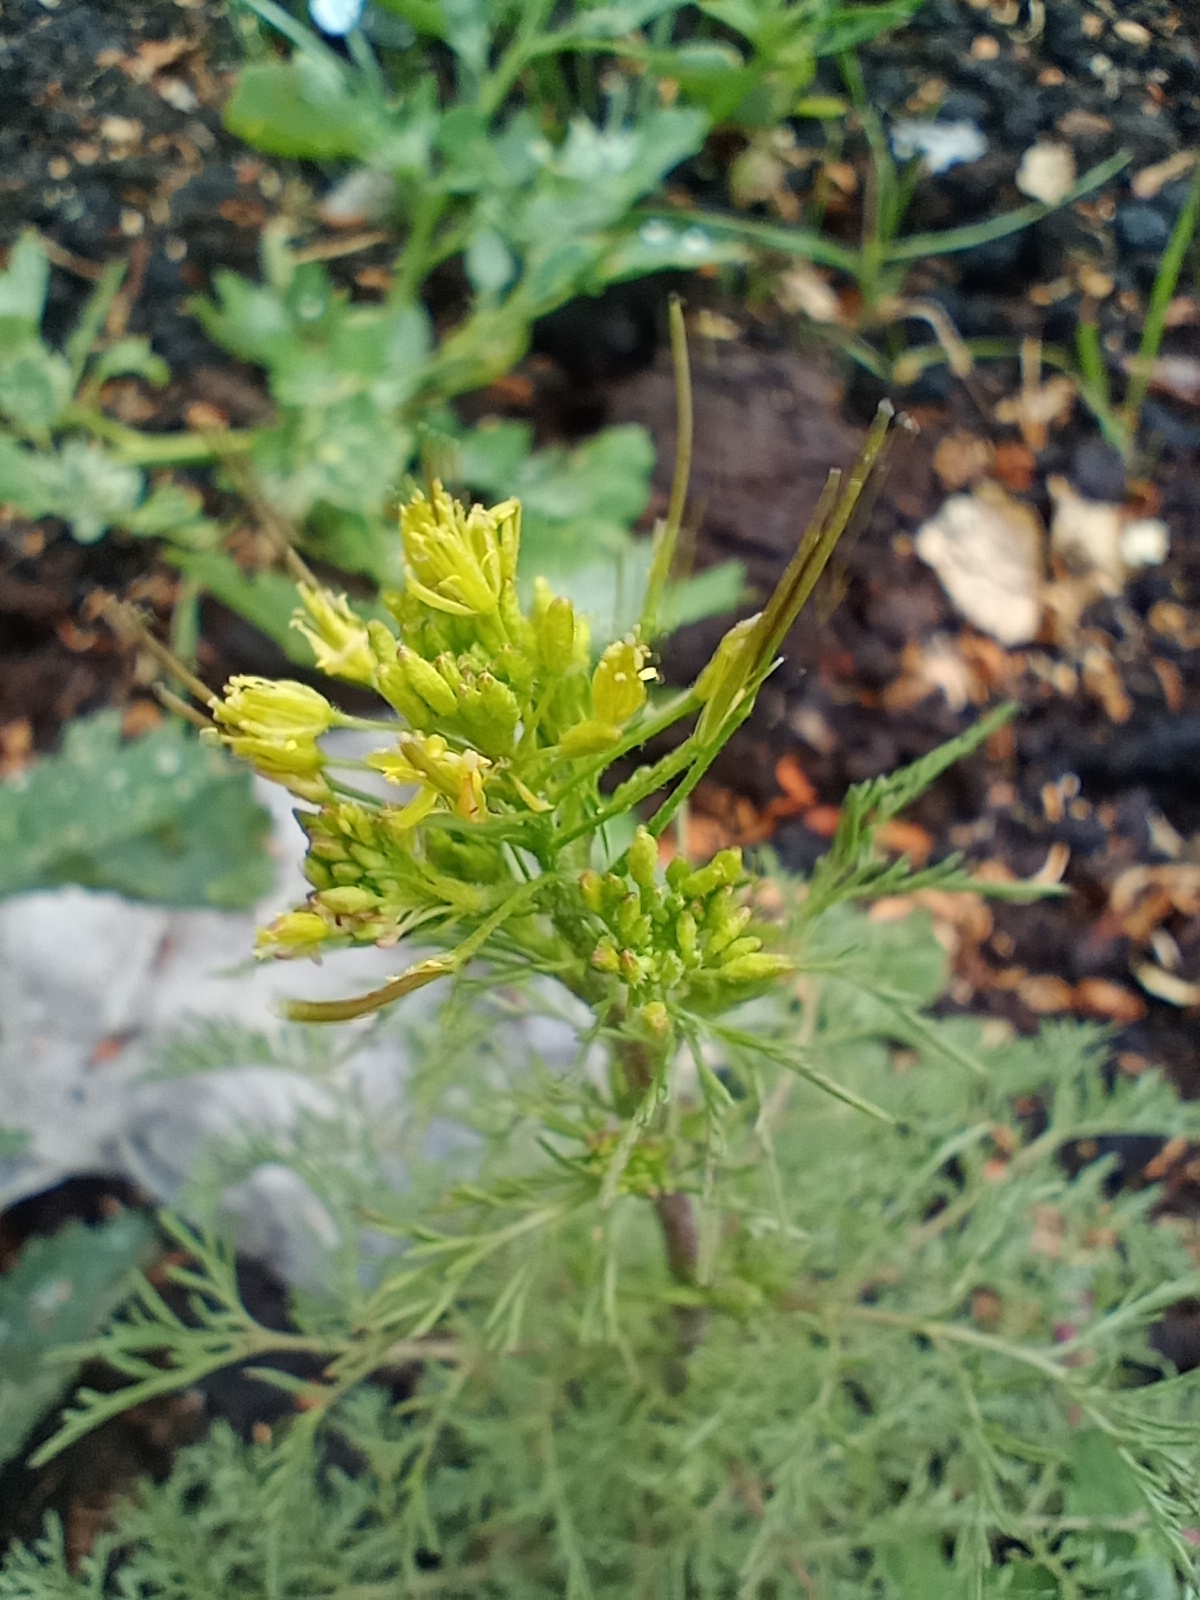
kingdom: Plantae
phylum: Tracheophyta
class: Magnoliopsida
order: Brassicales
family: Brassicaceae
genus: Descurainia
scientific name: Descurainia sophia
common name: Flixweed
